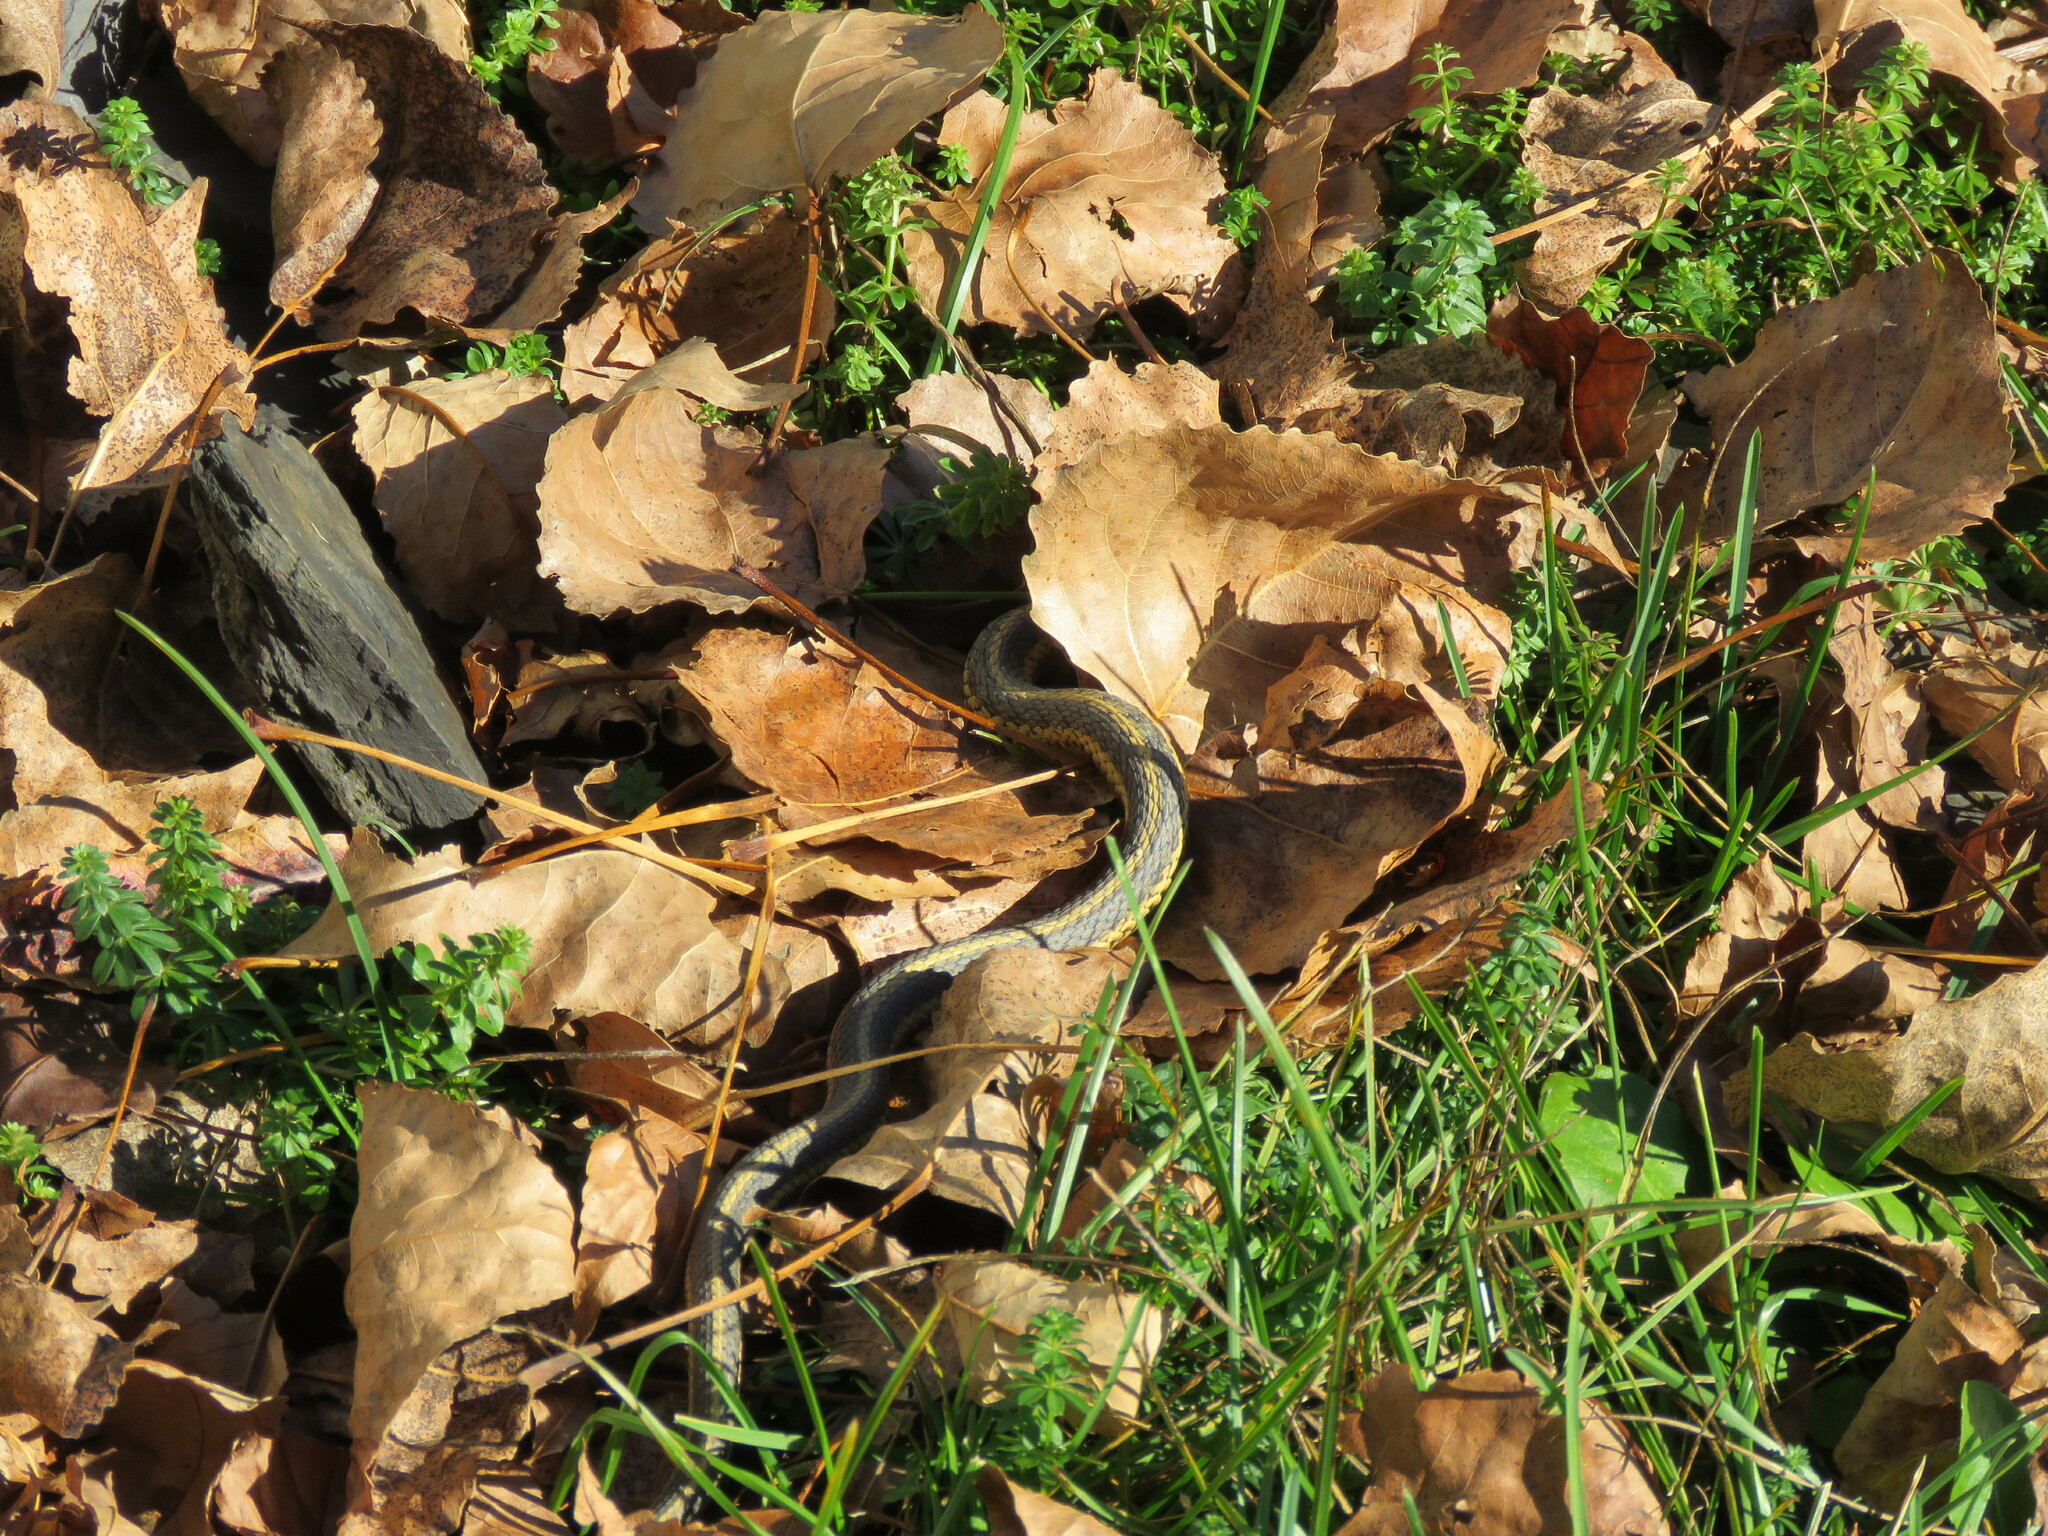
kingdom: Animalia
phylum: Chordata
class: Squamata
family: Colubridae
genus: Thamnophis
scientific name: Thamnophis sirtalis
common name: Common garter snake
